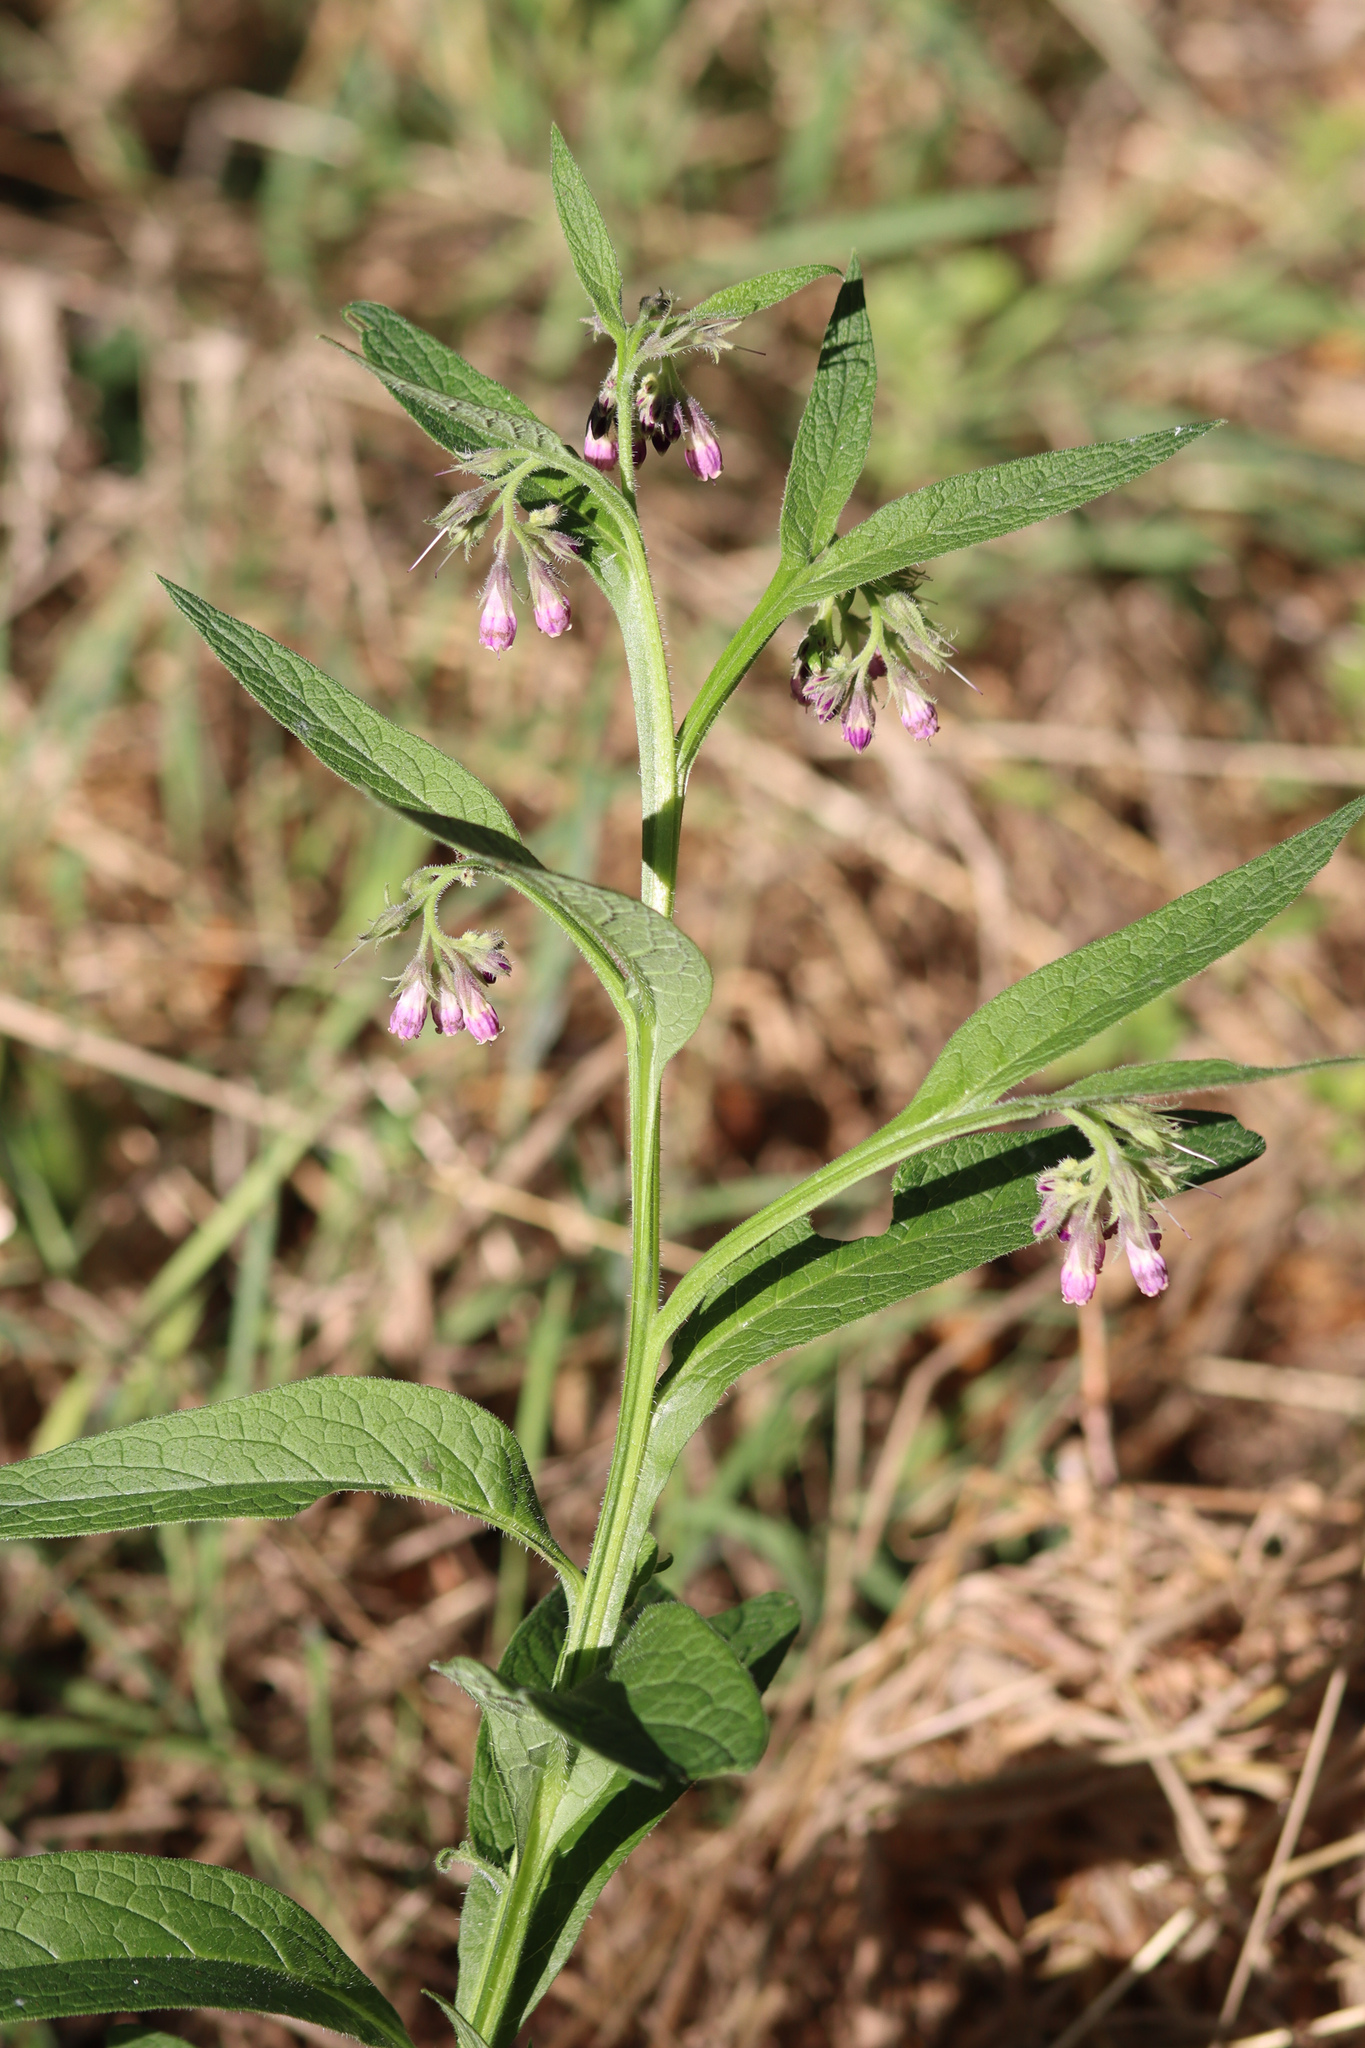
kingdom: Plantae
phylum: Tracheophyta
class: Magnoliopsida
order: Boraginales
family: Boraginaceae
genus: Symphytum
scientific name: Symphytum officinale
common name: Common comfrey
